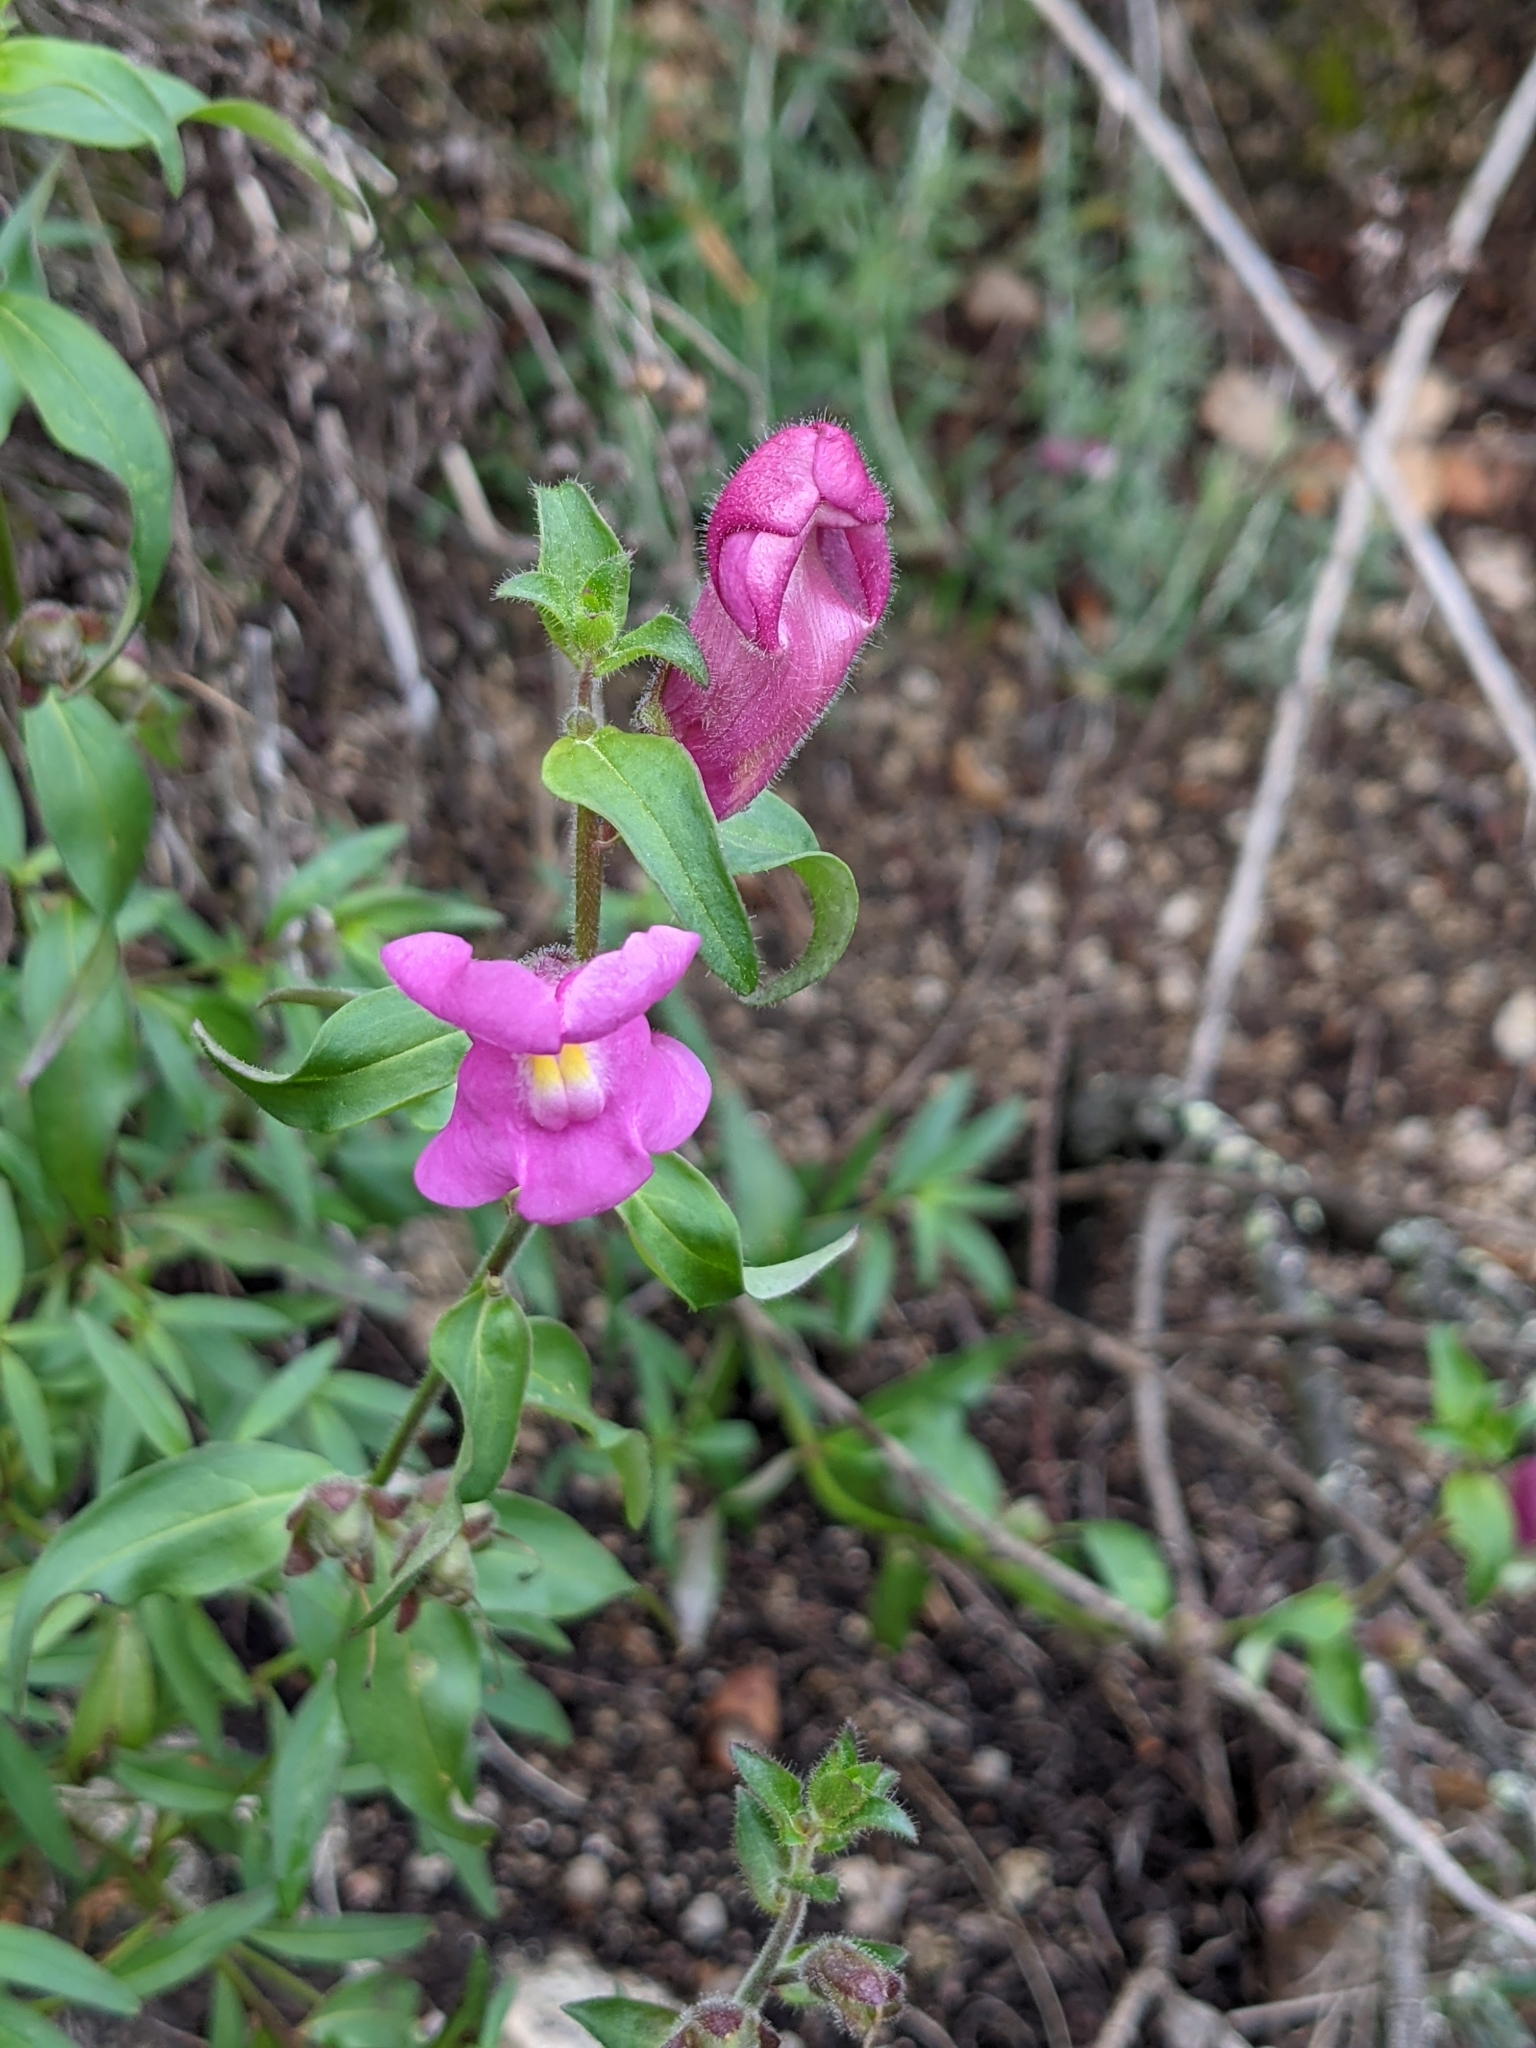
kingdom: Plantae
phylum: Tracheophyta
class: Magnoliopsida
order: Lamiales
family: Plantaginaceae
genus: Antirrhinum
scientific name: Antirrhinum majus
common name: Snapdragon
